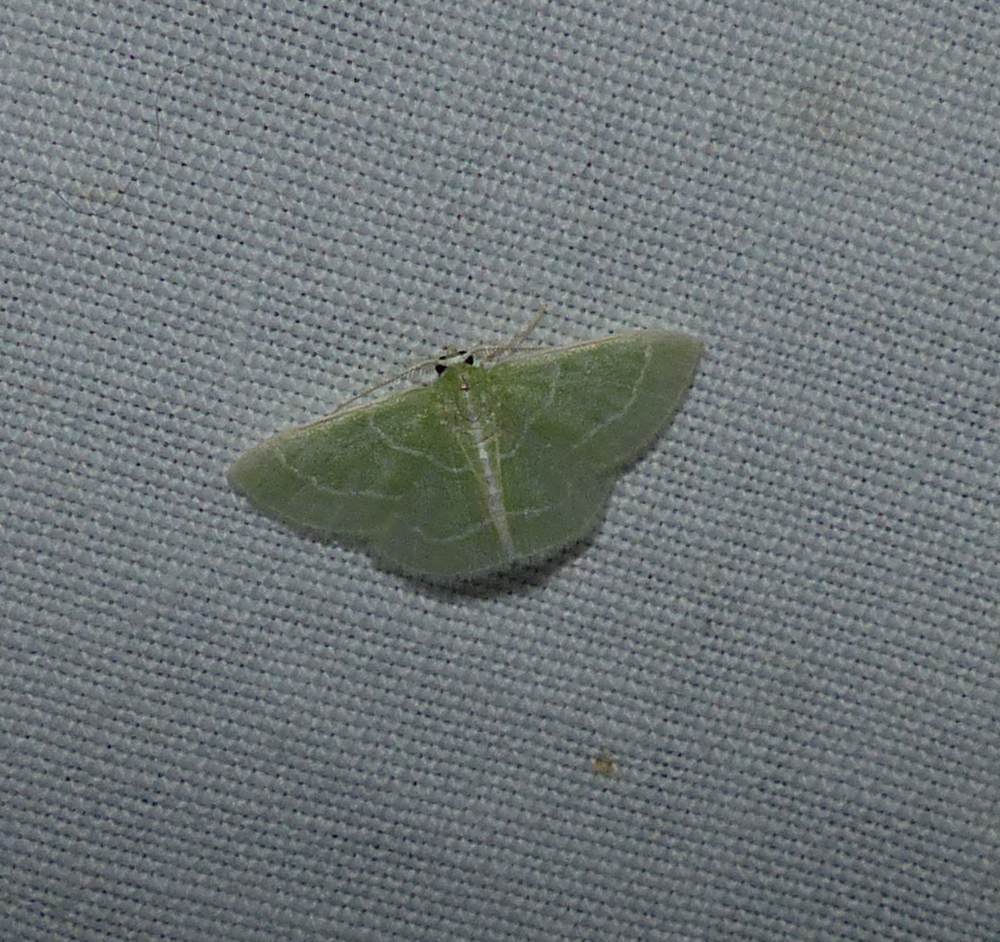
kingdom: Animalia
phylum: Arthropoda
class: Insecta
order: Lepidoptera
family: Geometridae
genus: Synchlora
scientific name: Synchlora aerata
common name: Wavy-lined emerald
